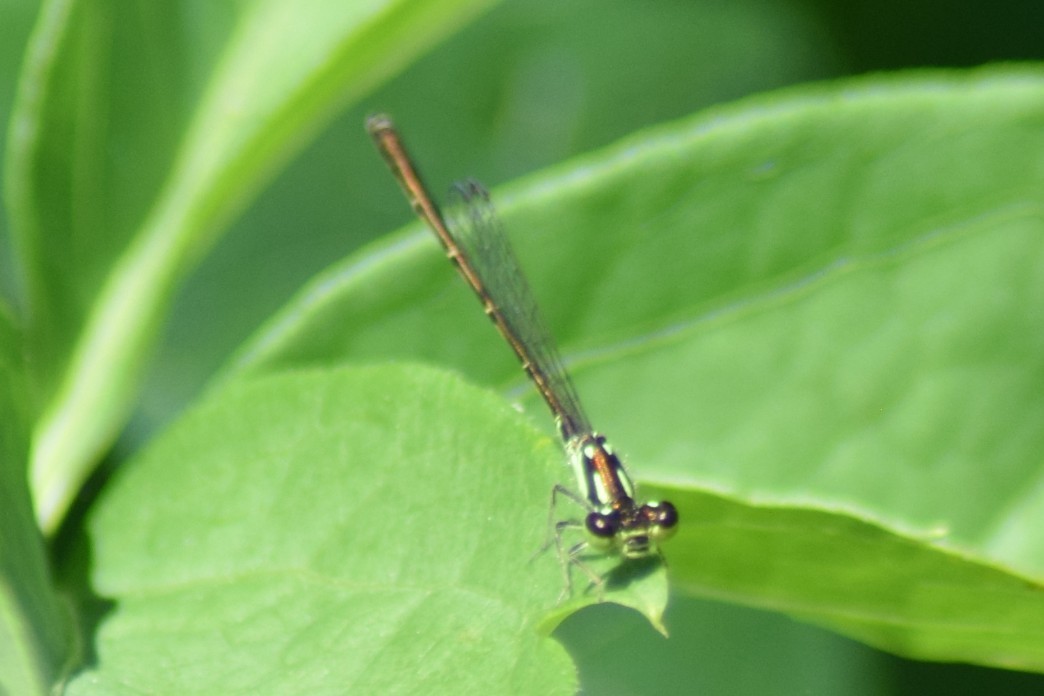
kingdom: Animalia
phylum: Arthropoda
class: Insecta
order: Odonata
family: Coenagrionidae
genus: Ischnura
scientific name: Ischnura posita
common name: Fragile forktail
